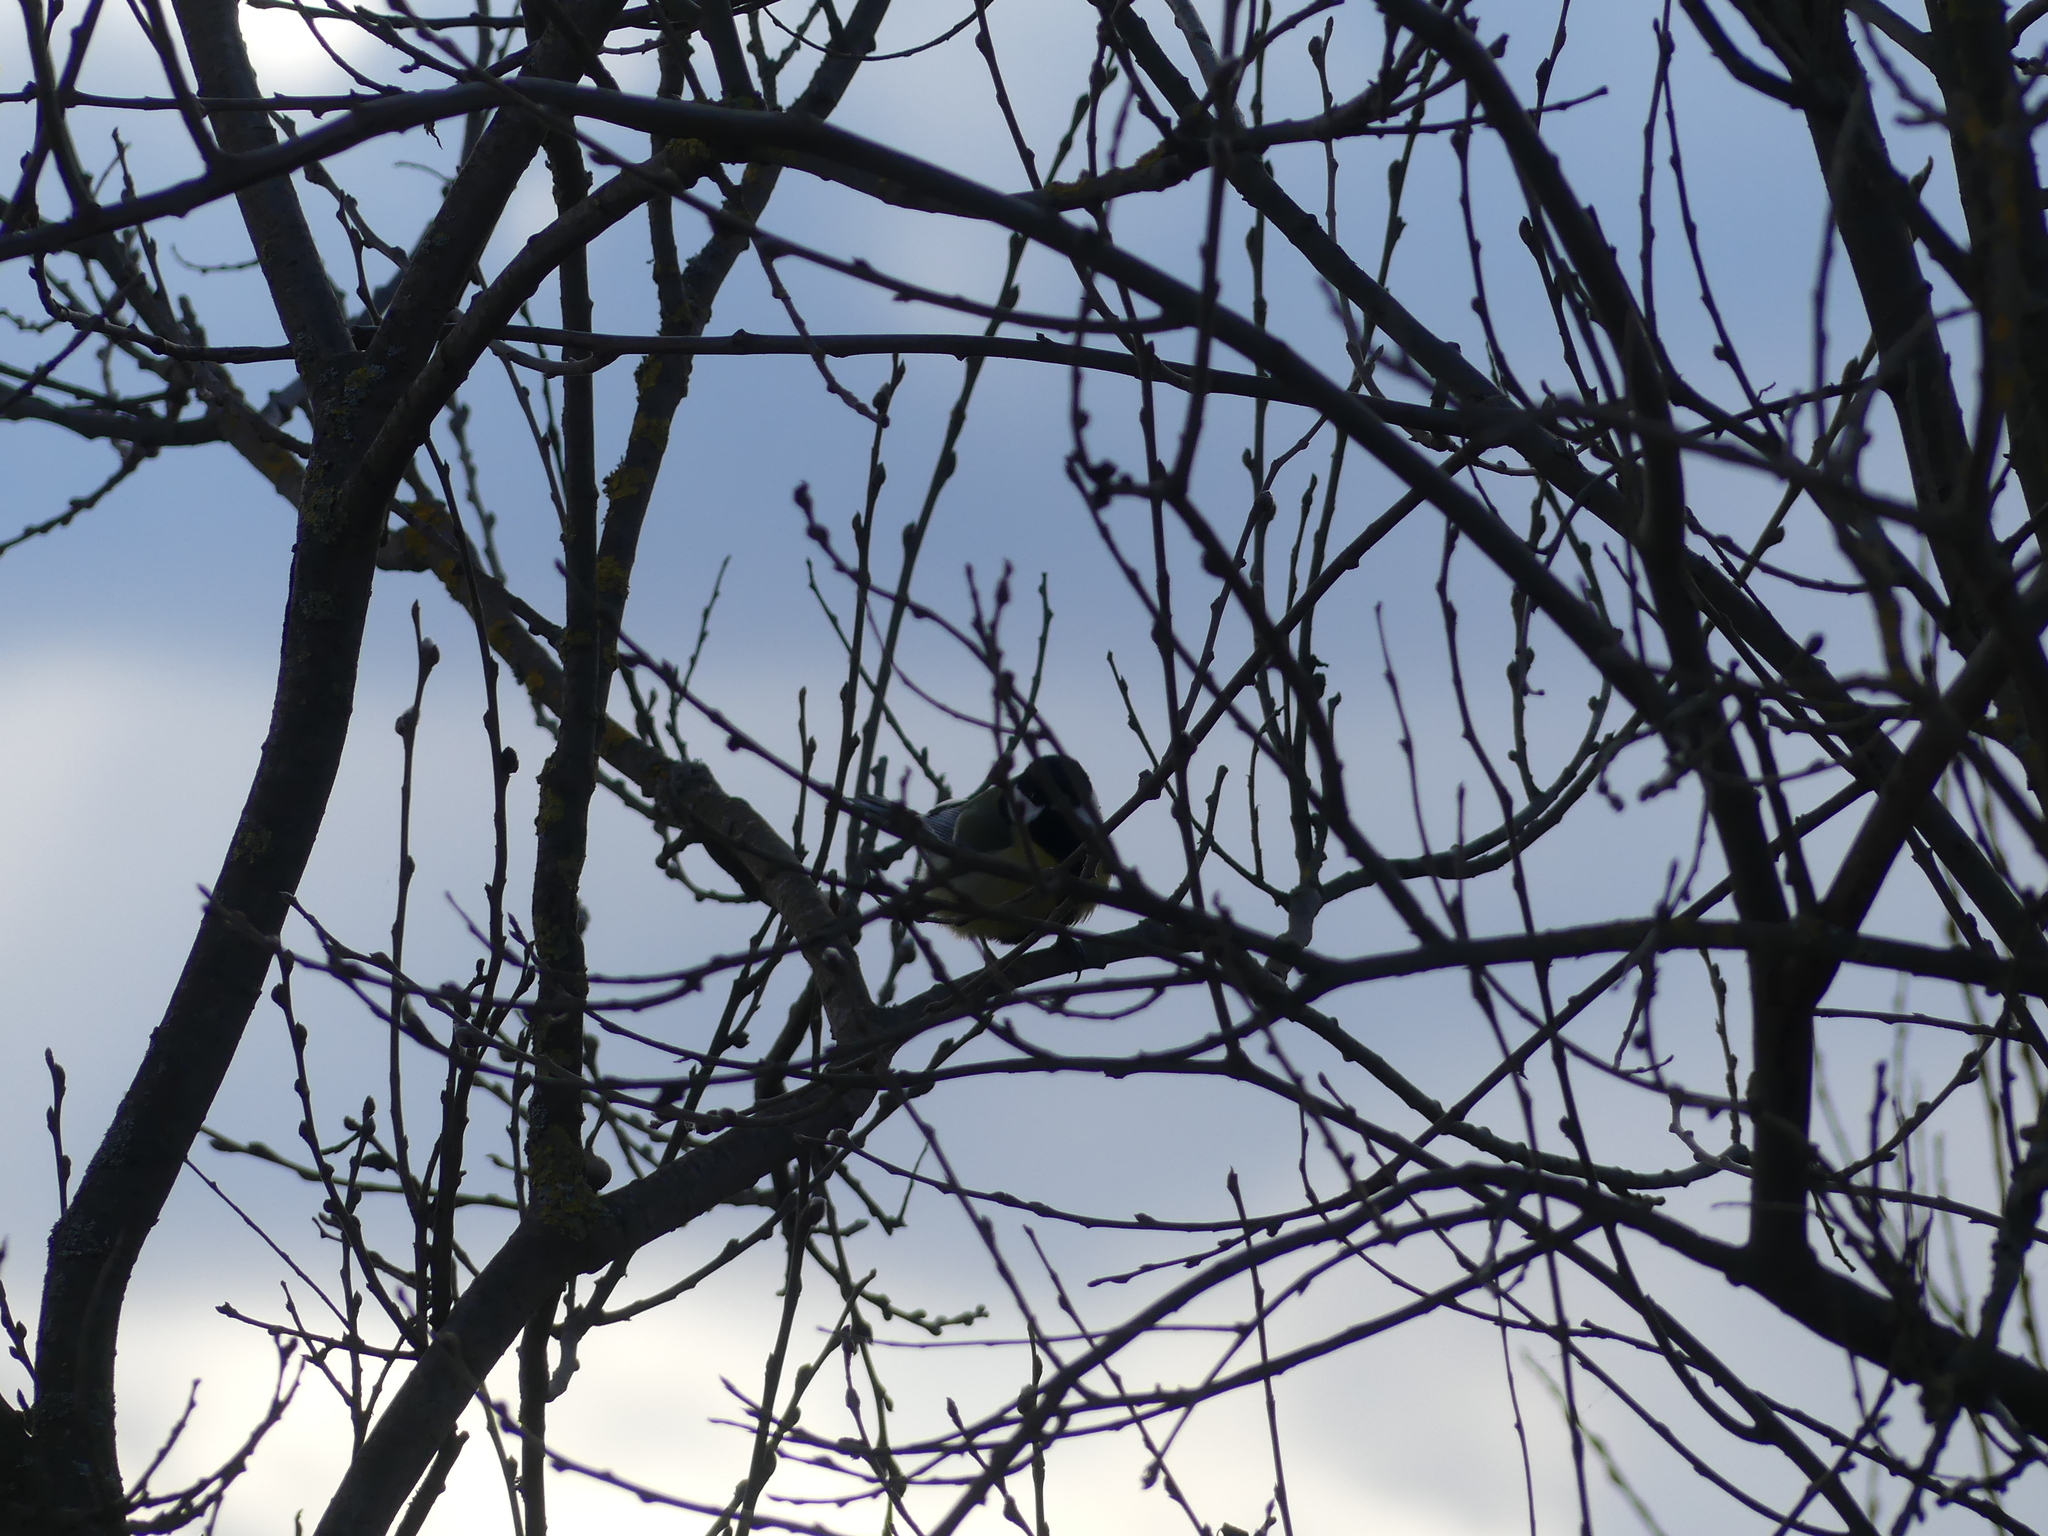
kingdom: Animalia
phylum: Chordata
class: Aves
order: Passeriformes
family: Paridae
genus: Parus
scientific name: Parus major
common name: Great tit
